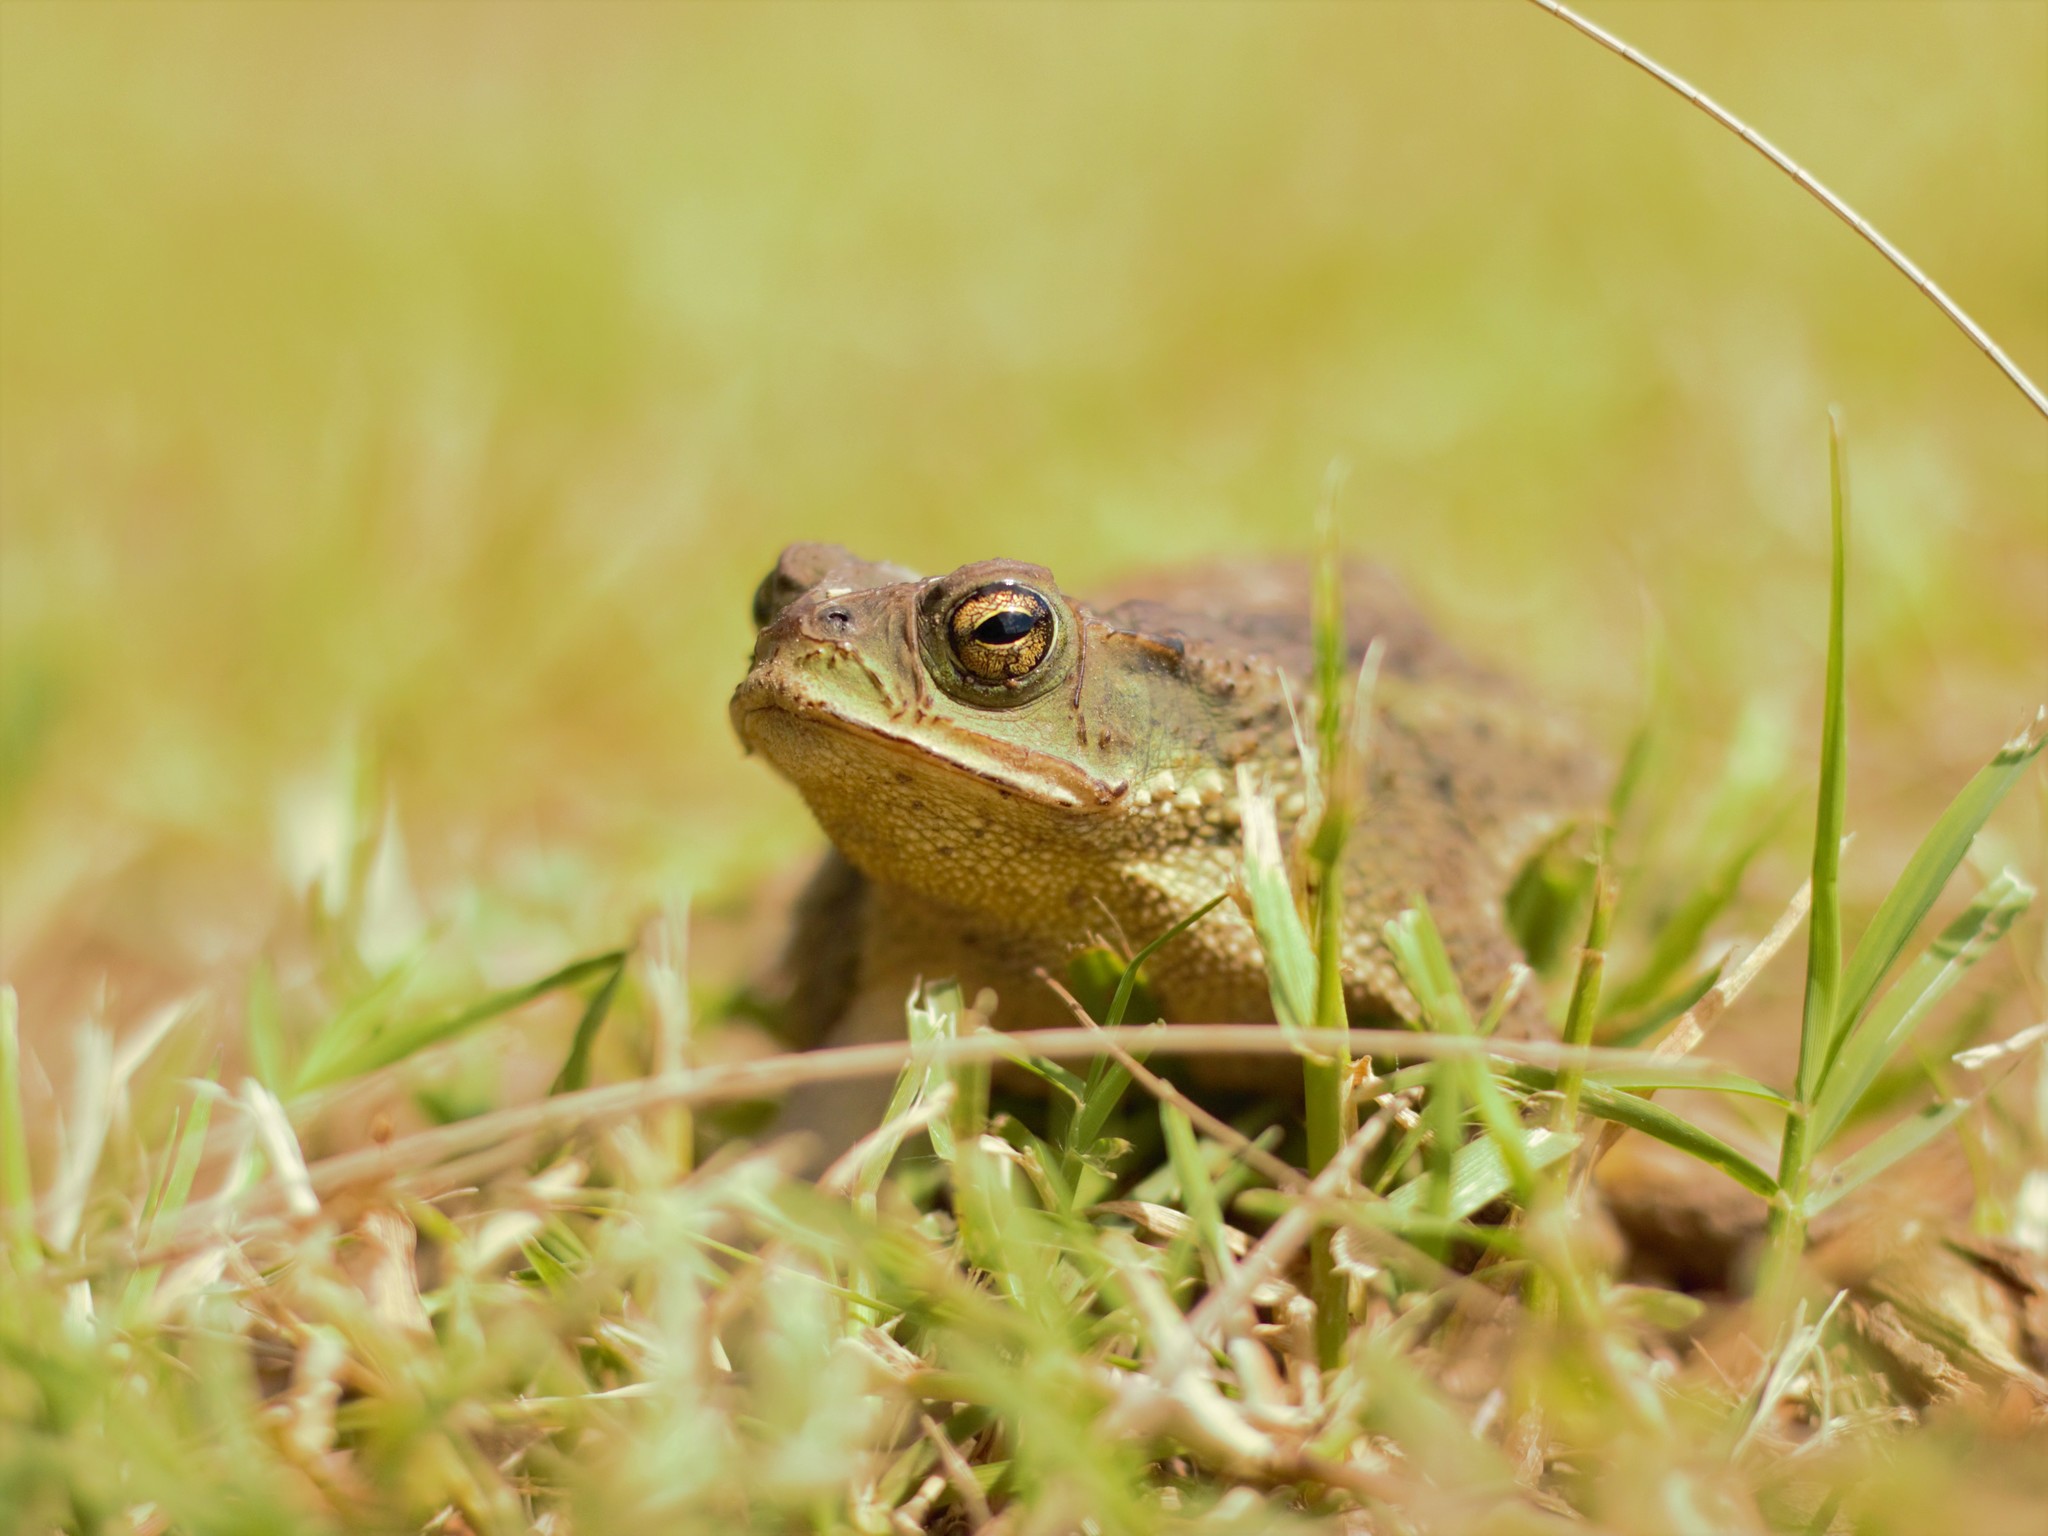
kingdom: Animalia
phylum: Chordata
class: Amphibia
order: Anura
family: Bufonidae
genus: Rhinella
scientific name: Rhinella dorbignyi
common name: D´orbigny’s toad
